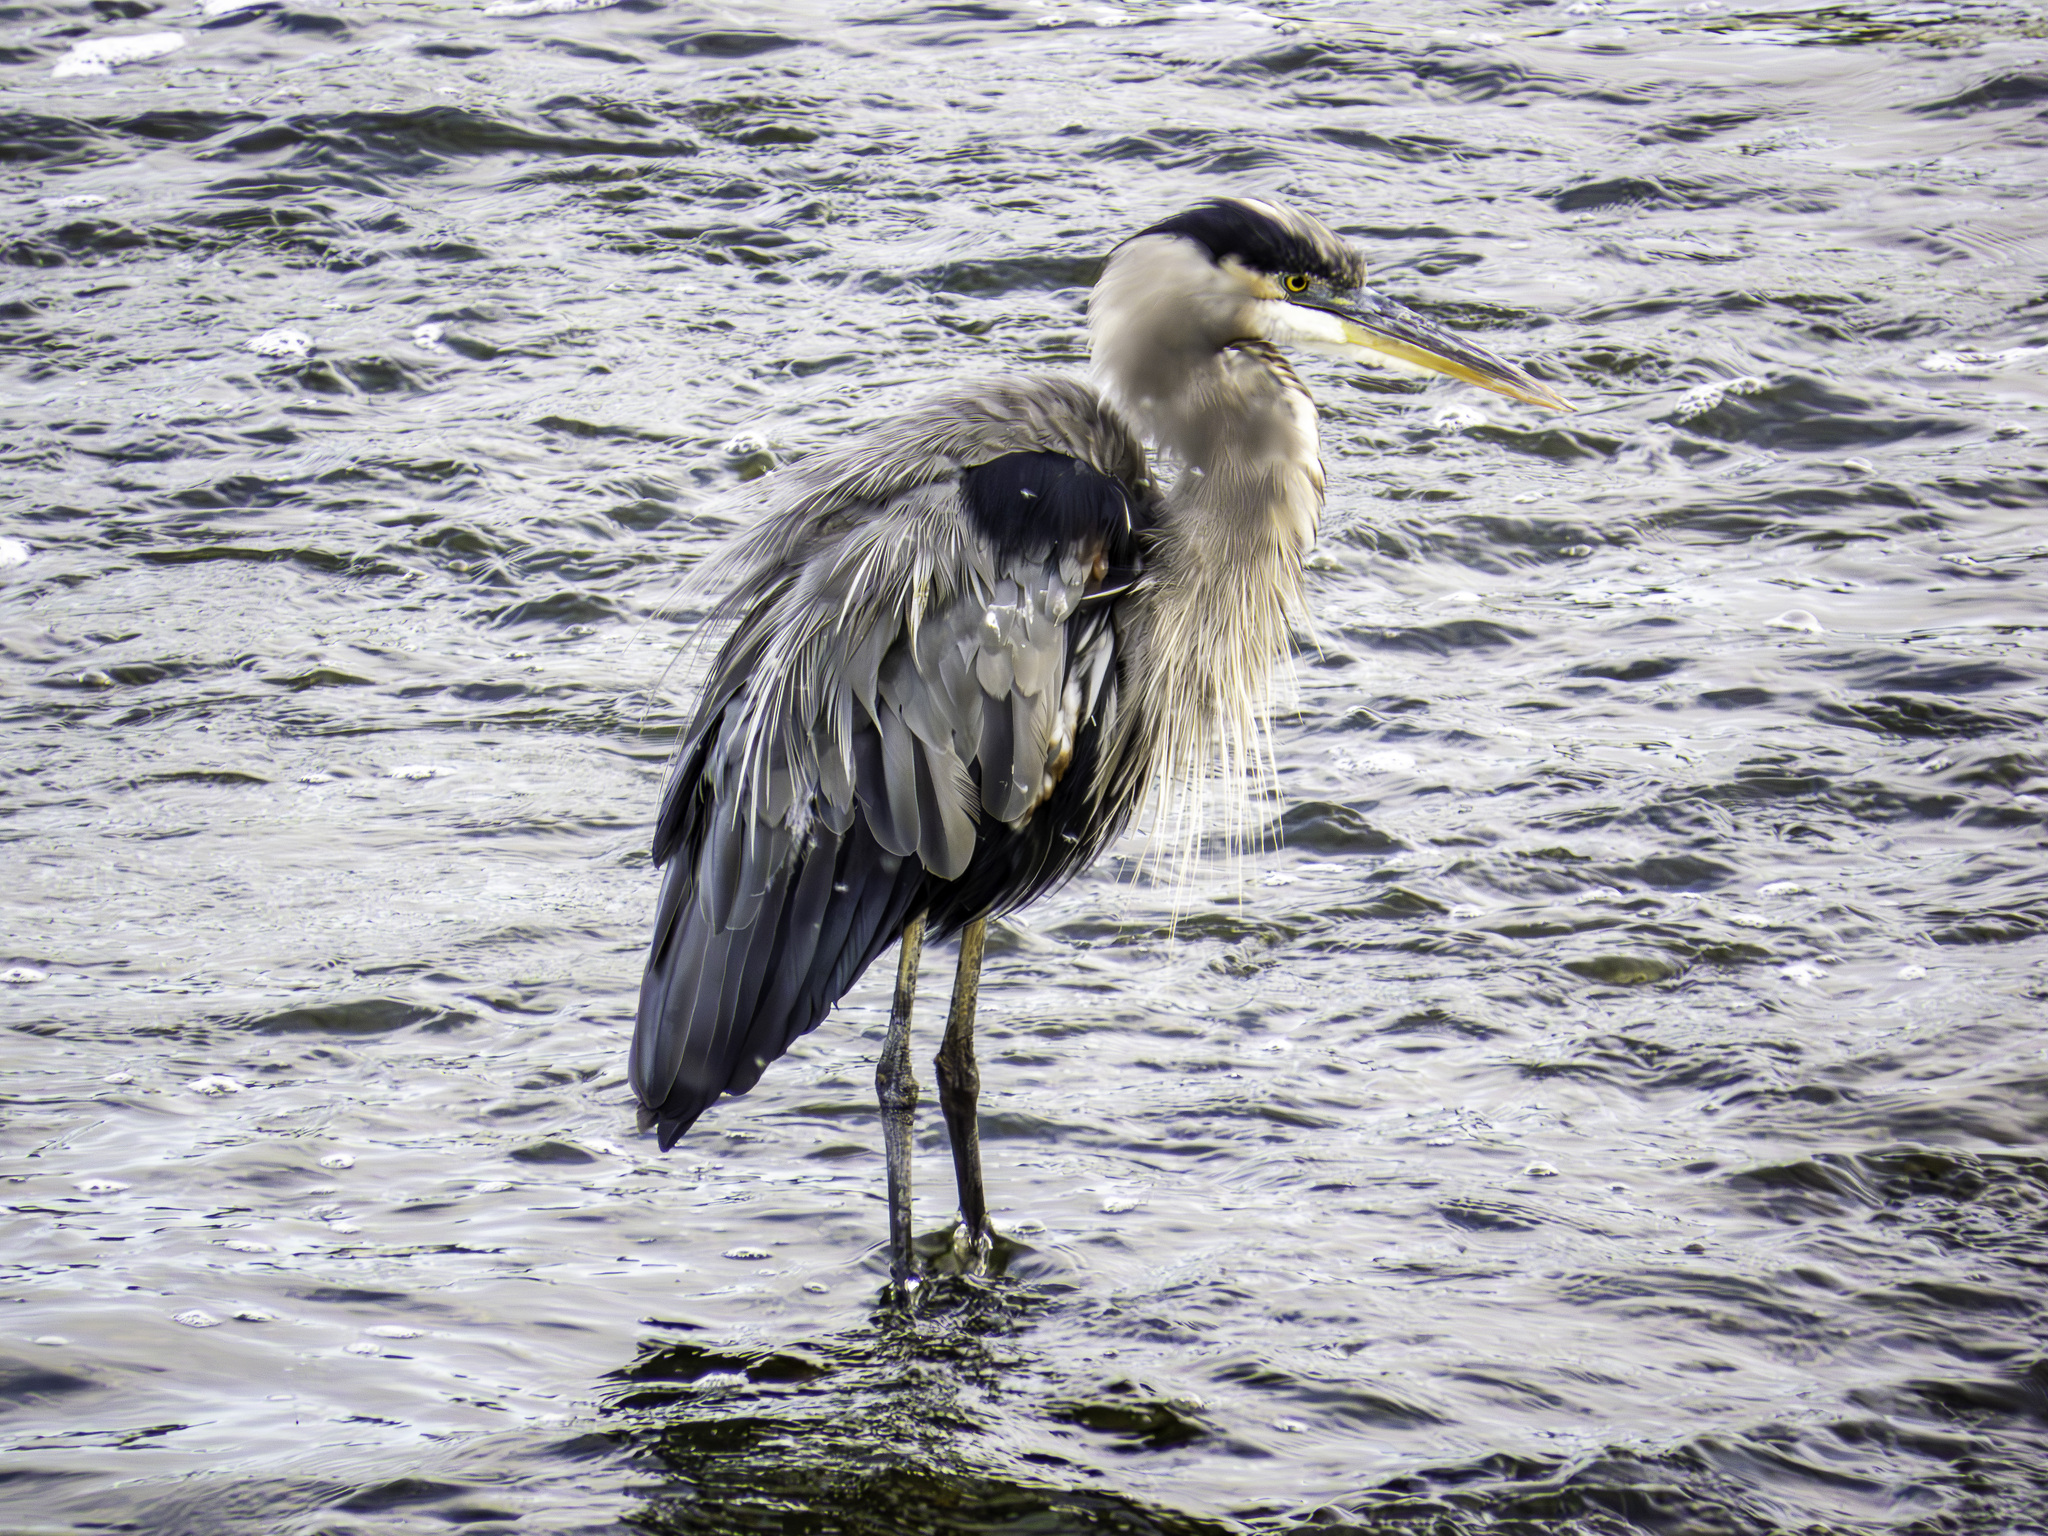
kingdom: Animalia
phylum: Chordata
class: Aves
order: Pelecaniformes
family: Ardeidae
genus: Ardea
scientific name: Ardea herodias
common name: Great blue heron
